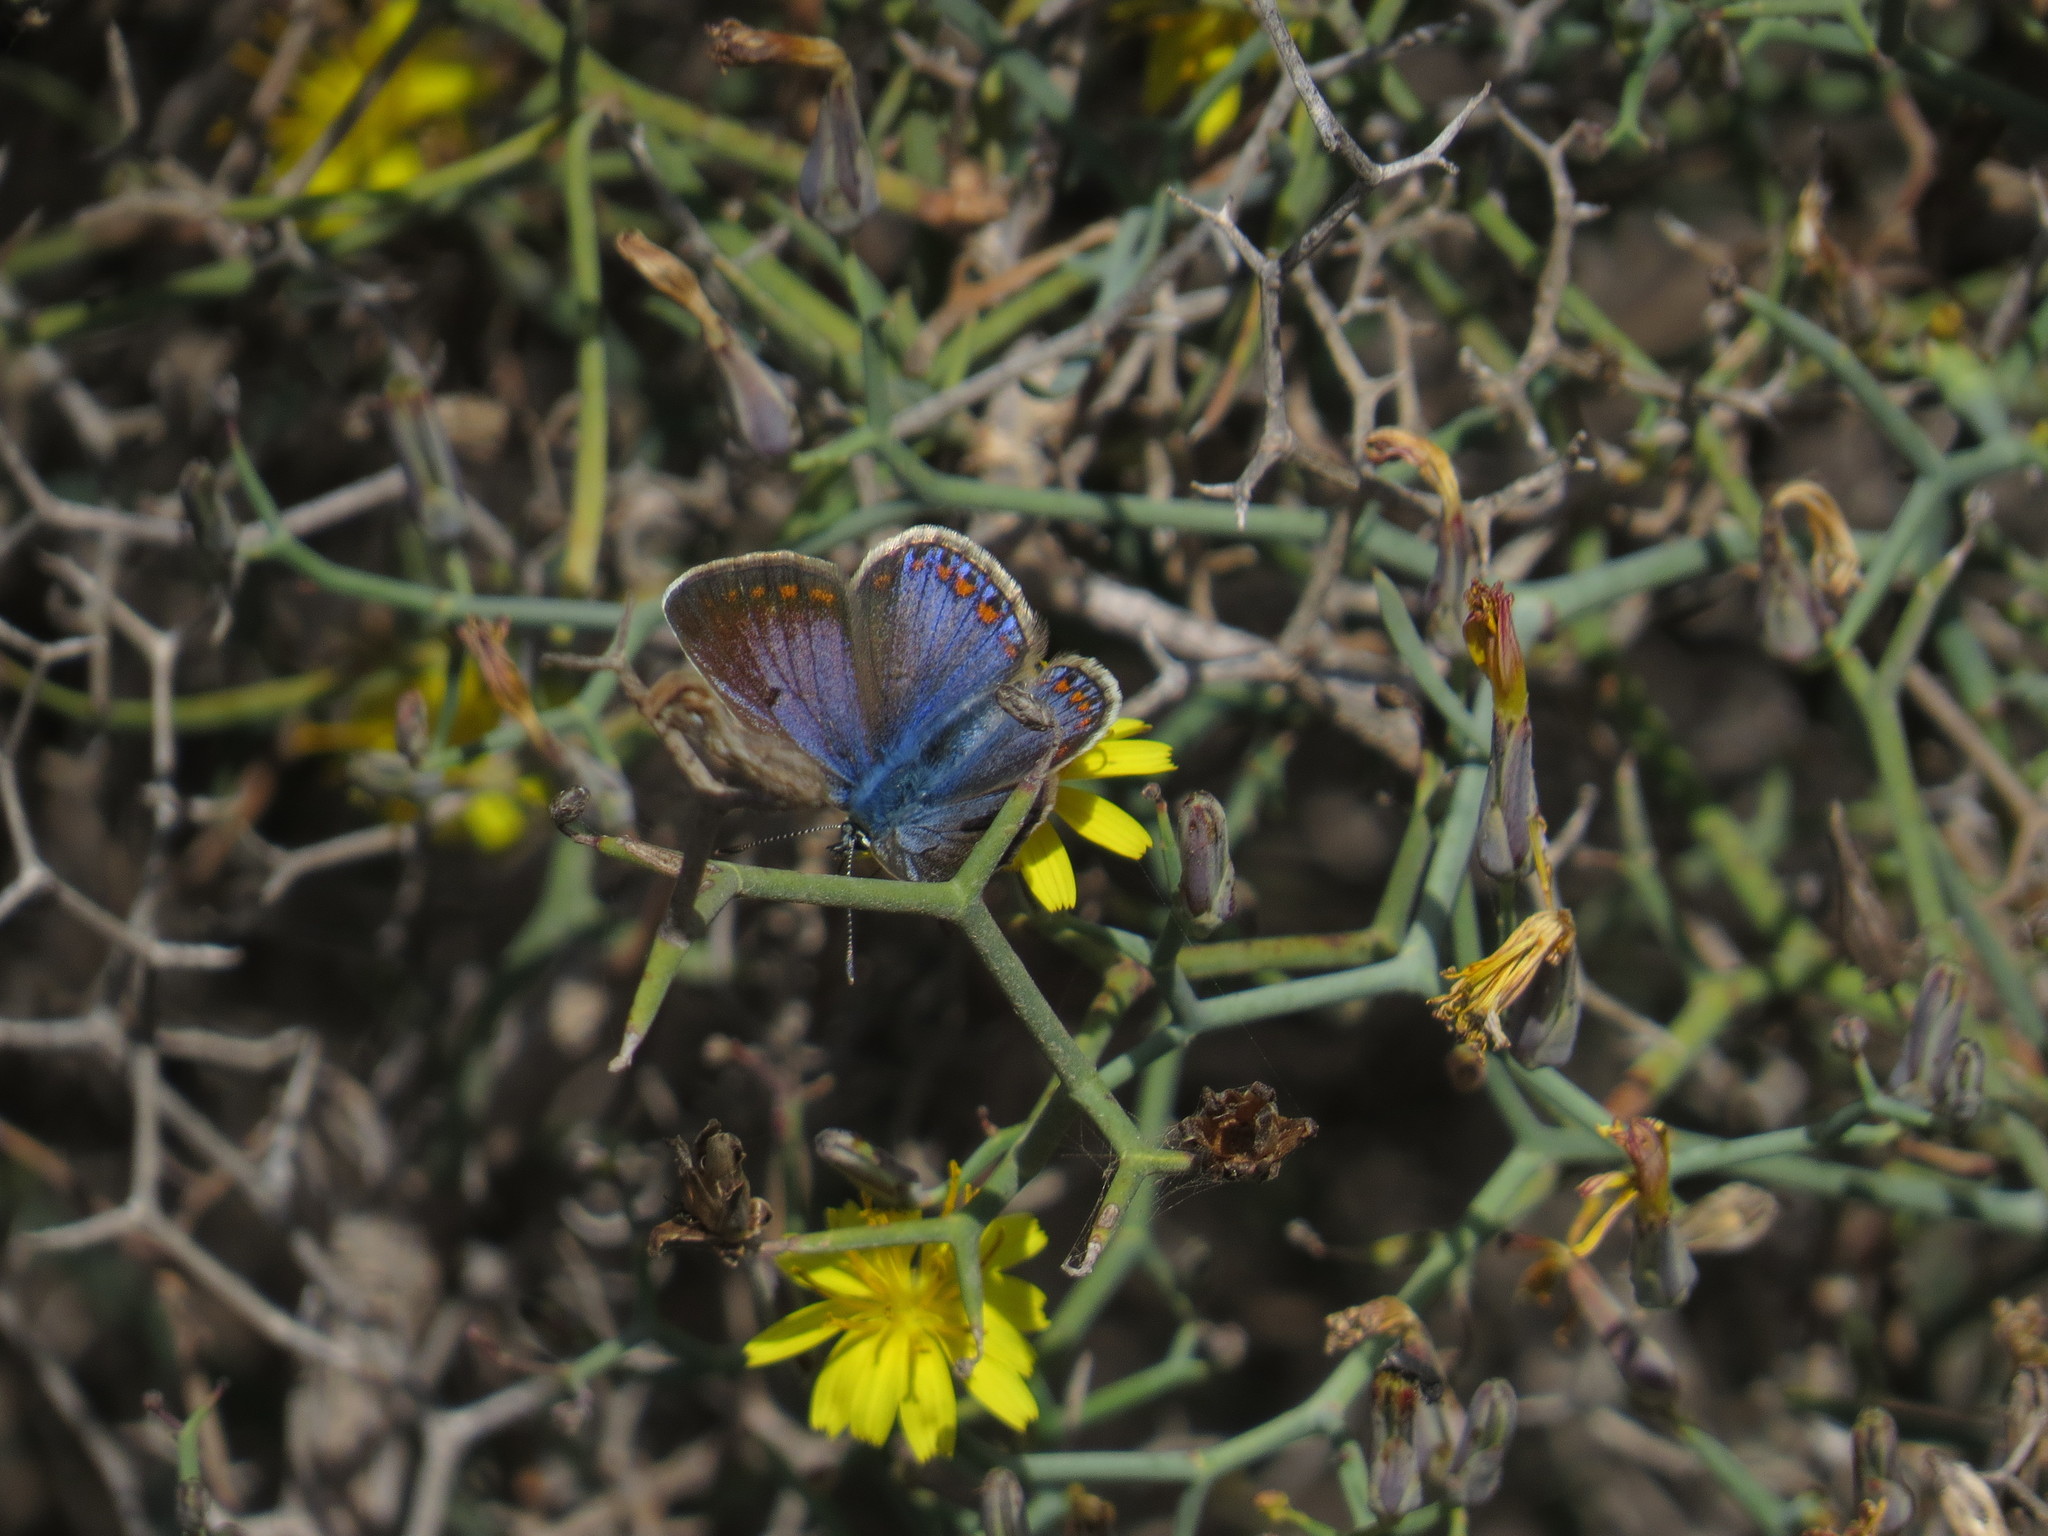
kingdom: Animalia
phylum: Arthropoda
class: Insecta
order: Lepidoptera
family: Lycaenidae
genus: Polyommatus
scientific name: Polyommatus celina
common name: Austaut's blue
